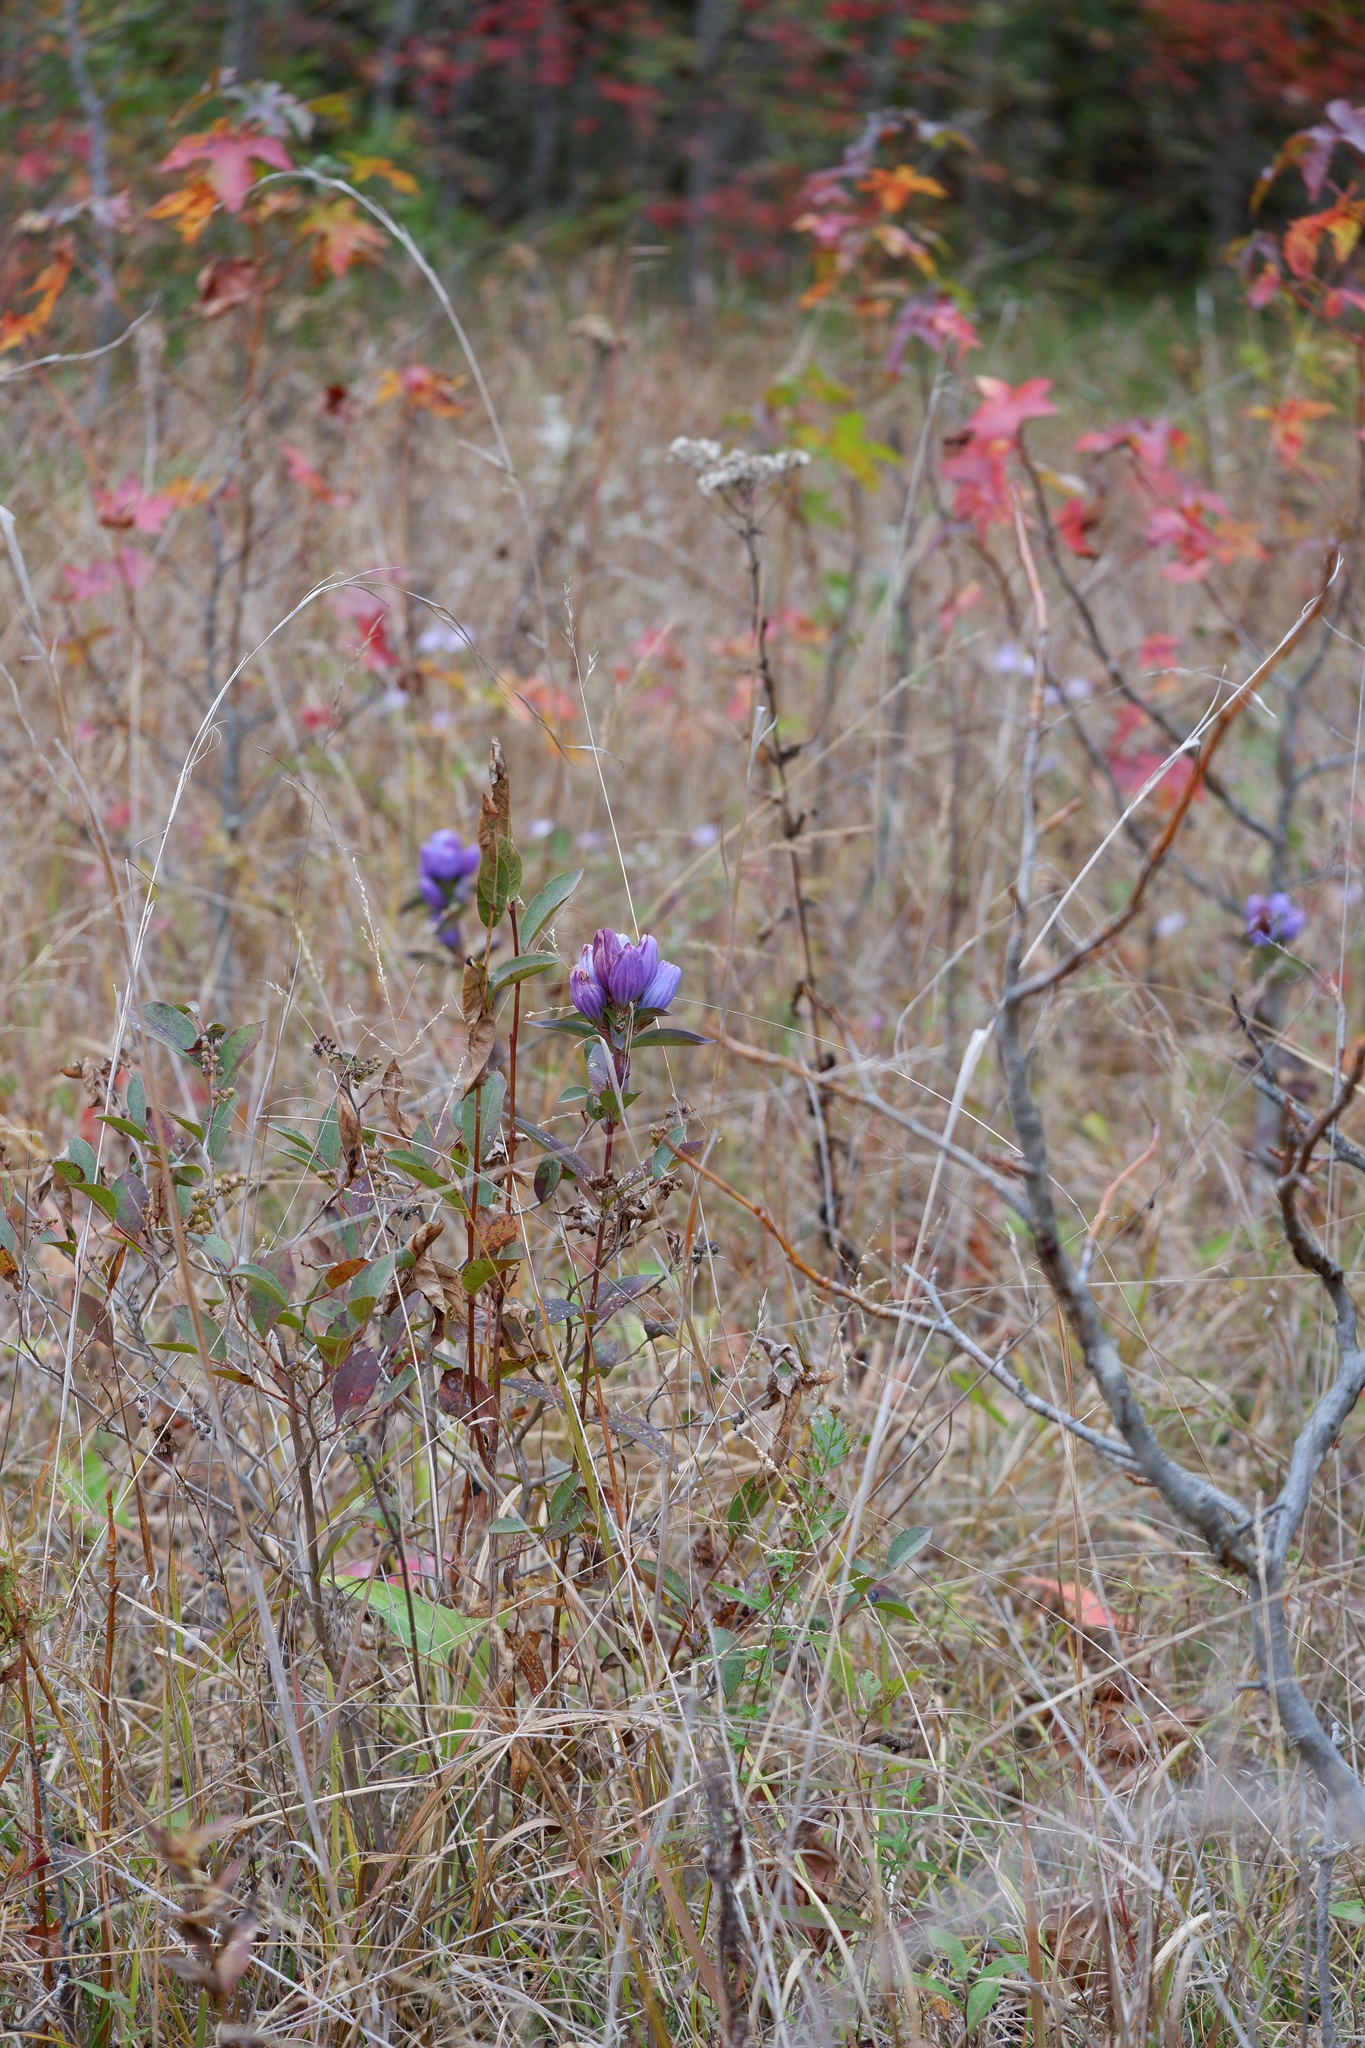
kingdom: Plantae
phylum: Tracheophyta
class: Magnoliopsida
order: Gentianales
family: Gentianaceae
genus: Gentiana
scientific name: Gentiana saponaria
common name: Soapwort gentian
